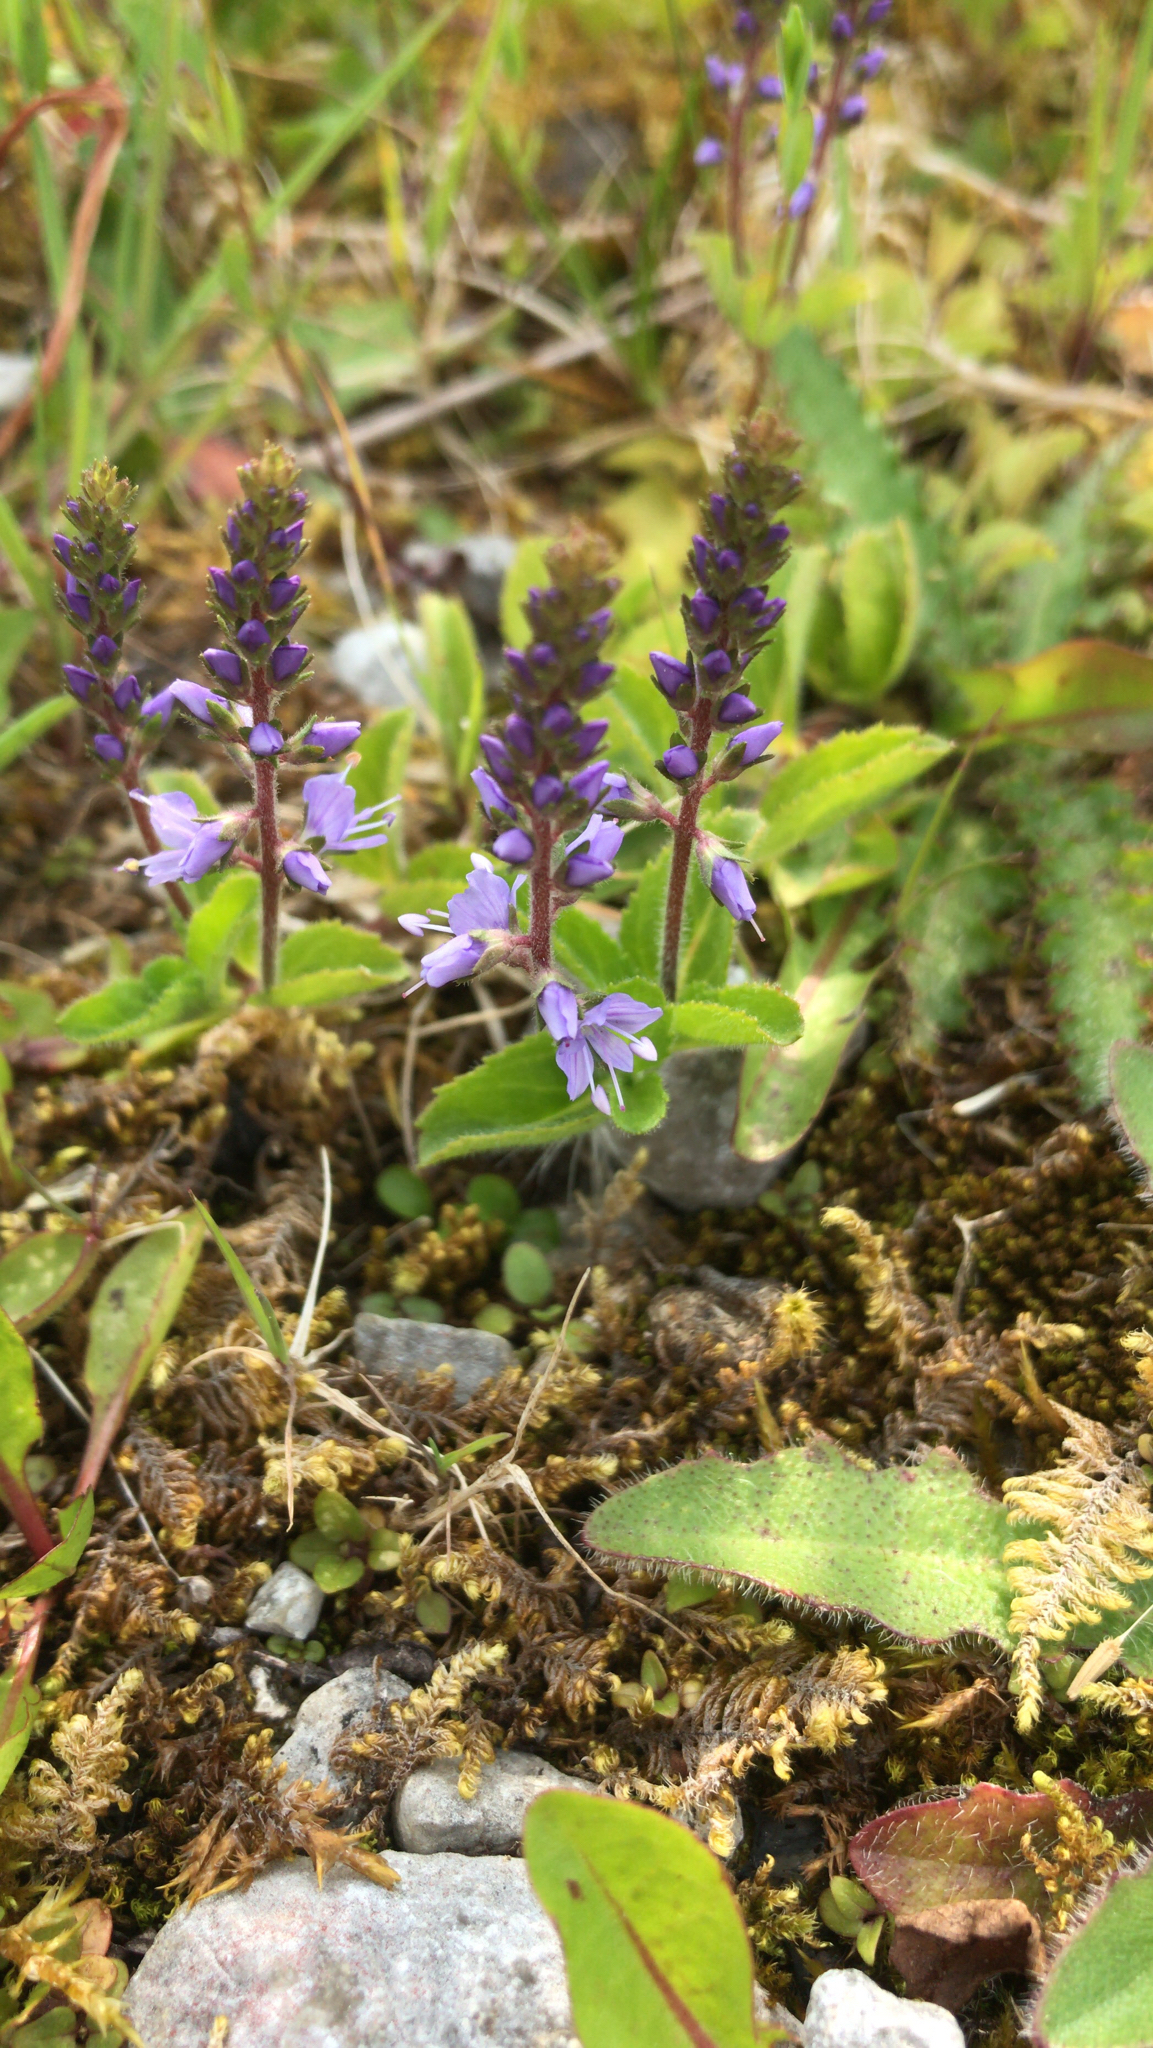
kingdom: Plantae
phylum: Tracheophyta
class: Magnoliopsida
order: Lamiales
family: Plantaginaceae
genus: Veronica
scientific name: Veronica officinalis
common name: Common speedwell
